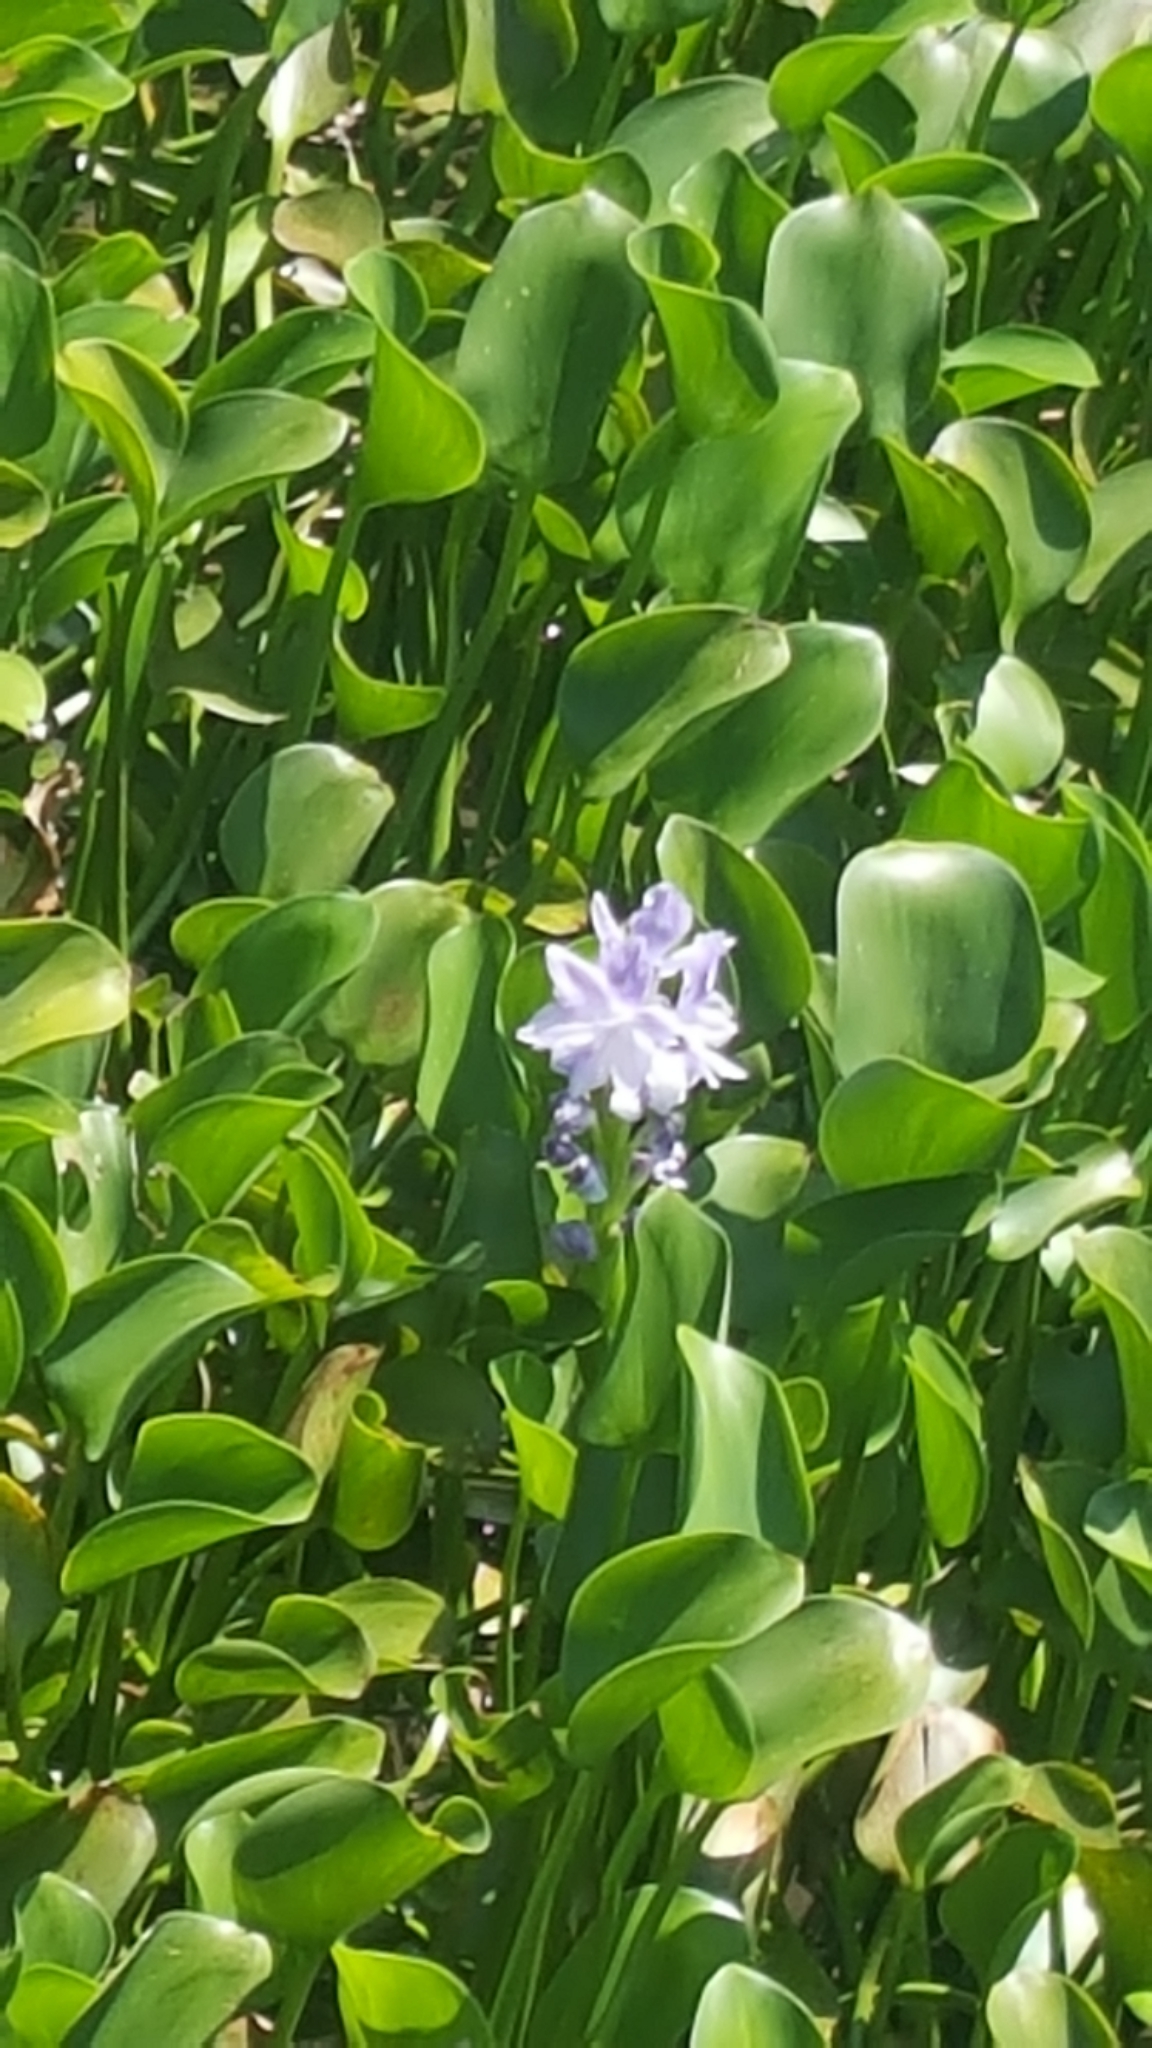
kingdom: Plantae
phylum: Tracheophyta
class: Liliopsida
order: Commelinales
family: Pontederiaceae
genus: Pontederia
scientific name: Pontederia crassipes
